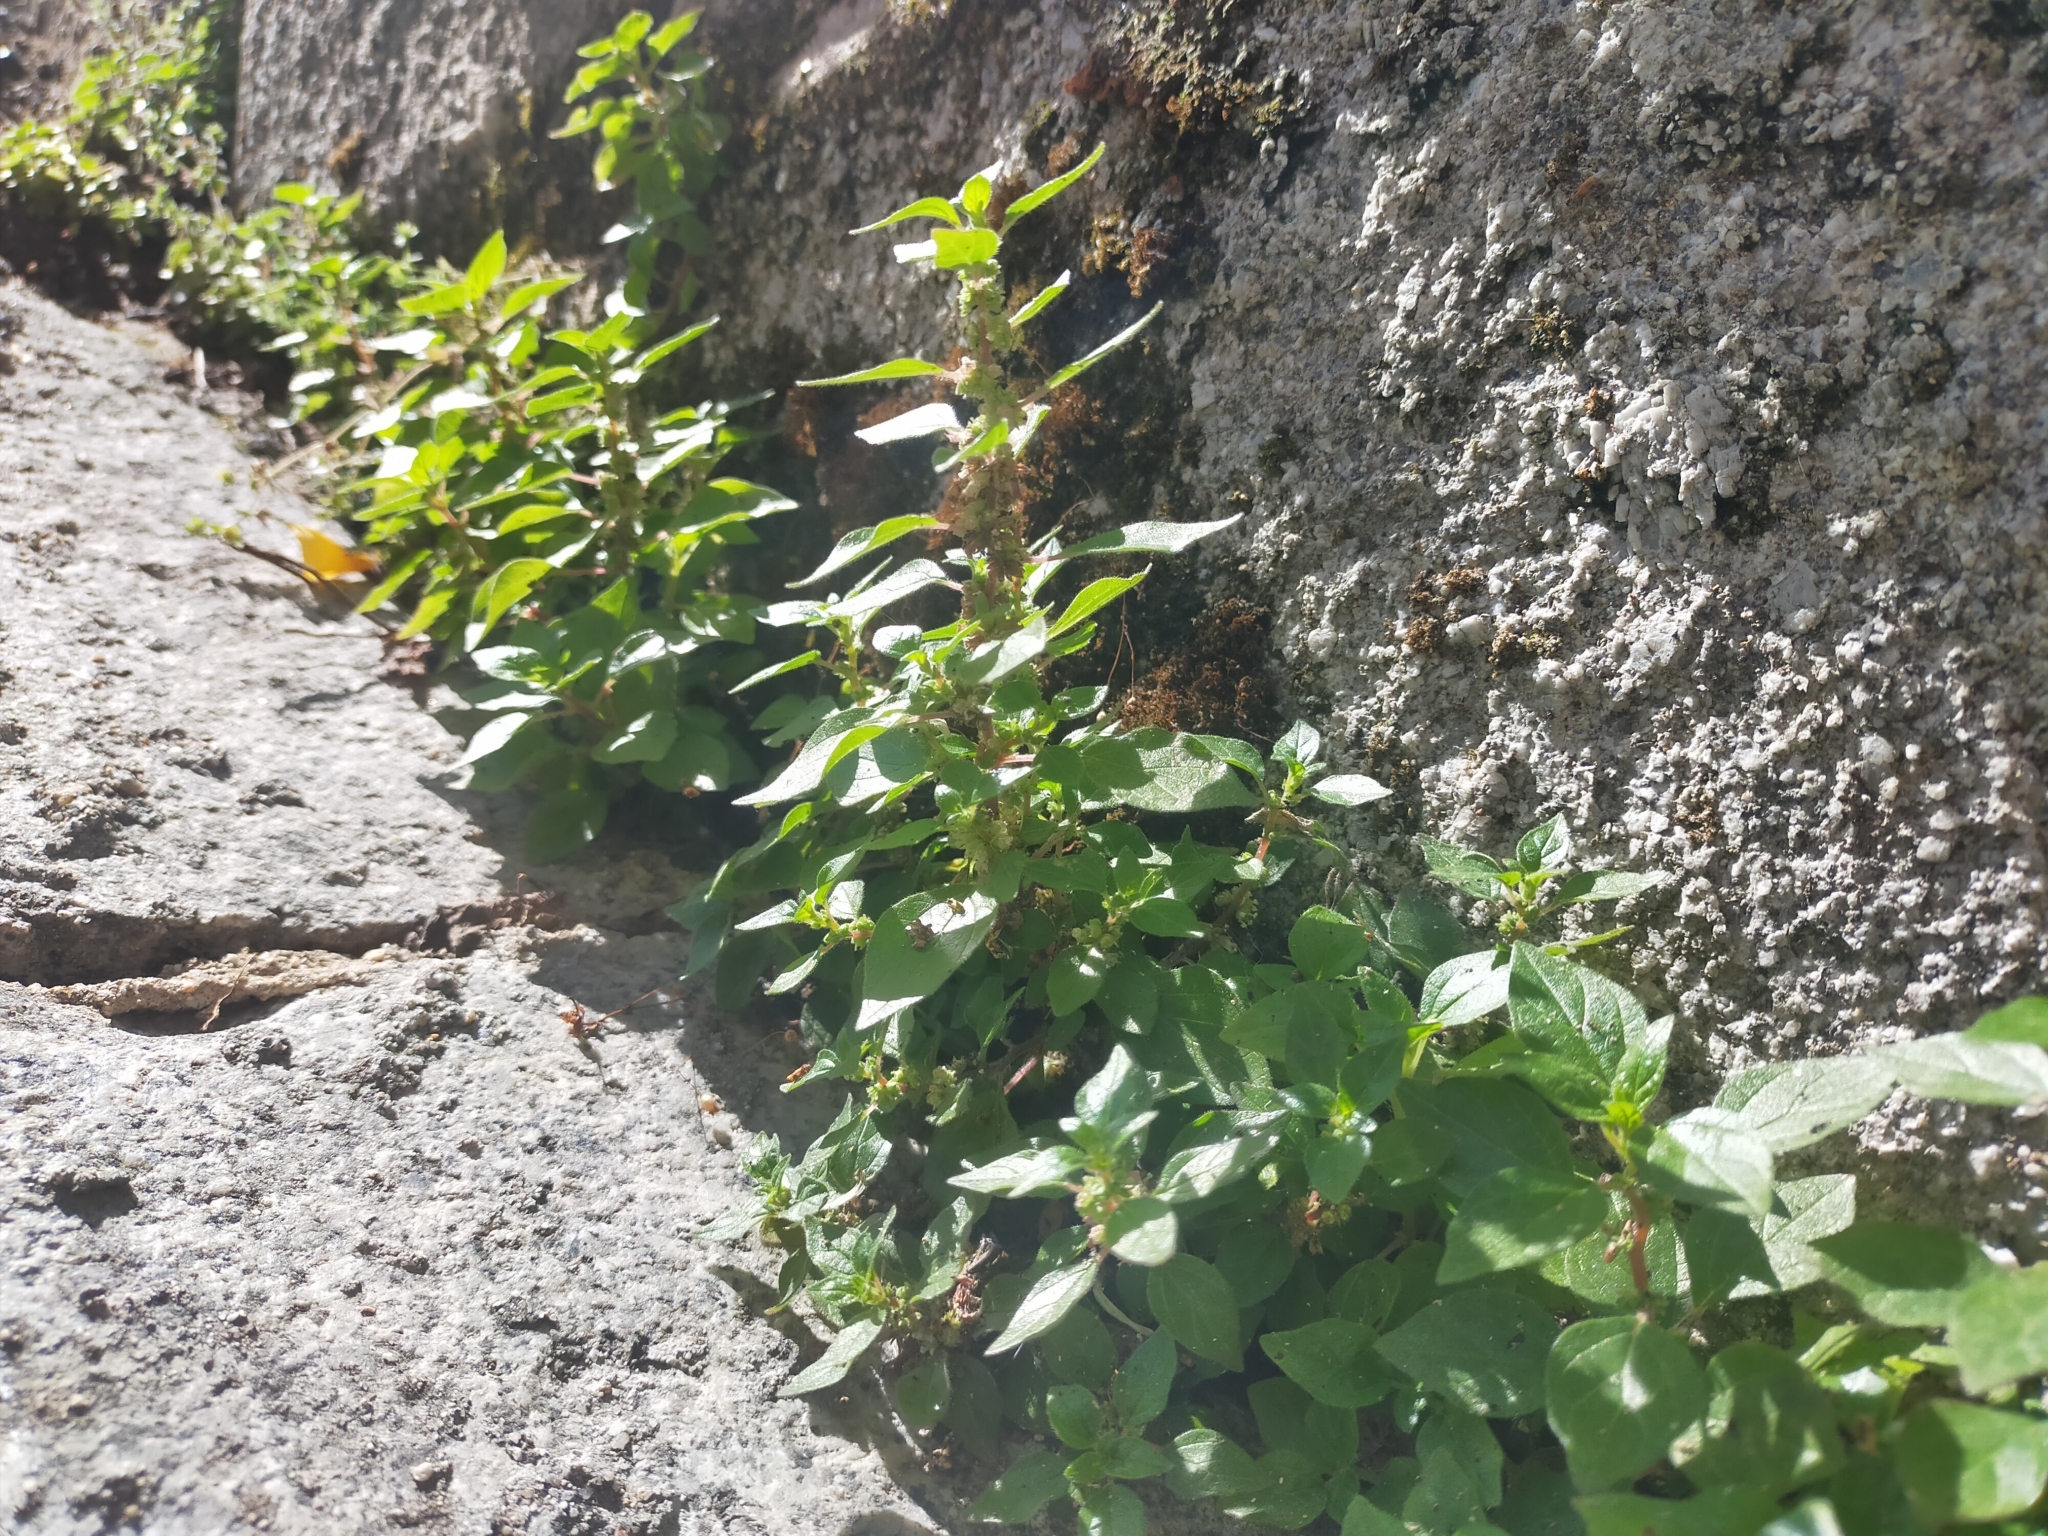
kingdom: Plantae
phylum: Tracheophyta
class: Magnoliopsida
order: Rosales
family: Urticaceae
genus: Parietaria
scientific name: Parietaria judaica
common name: Pellitory-of-the-wall
